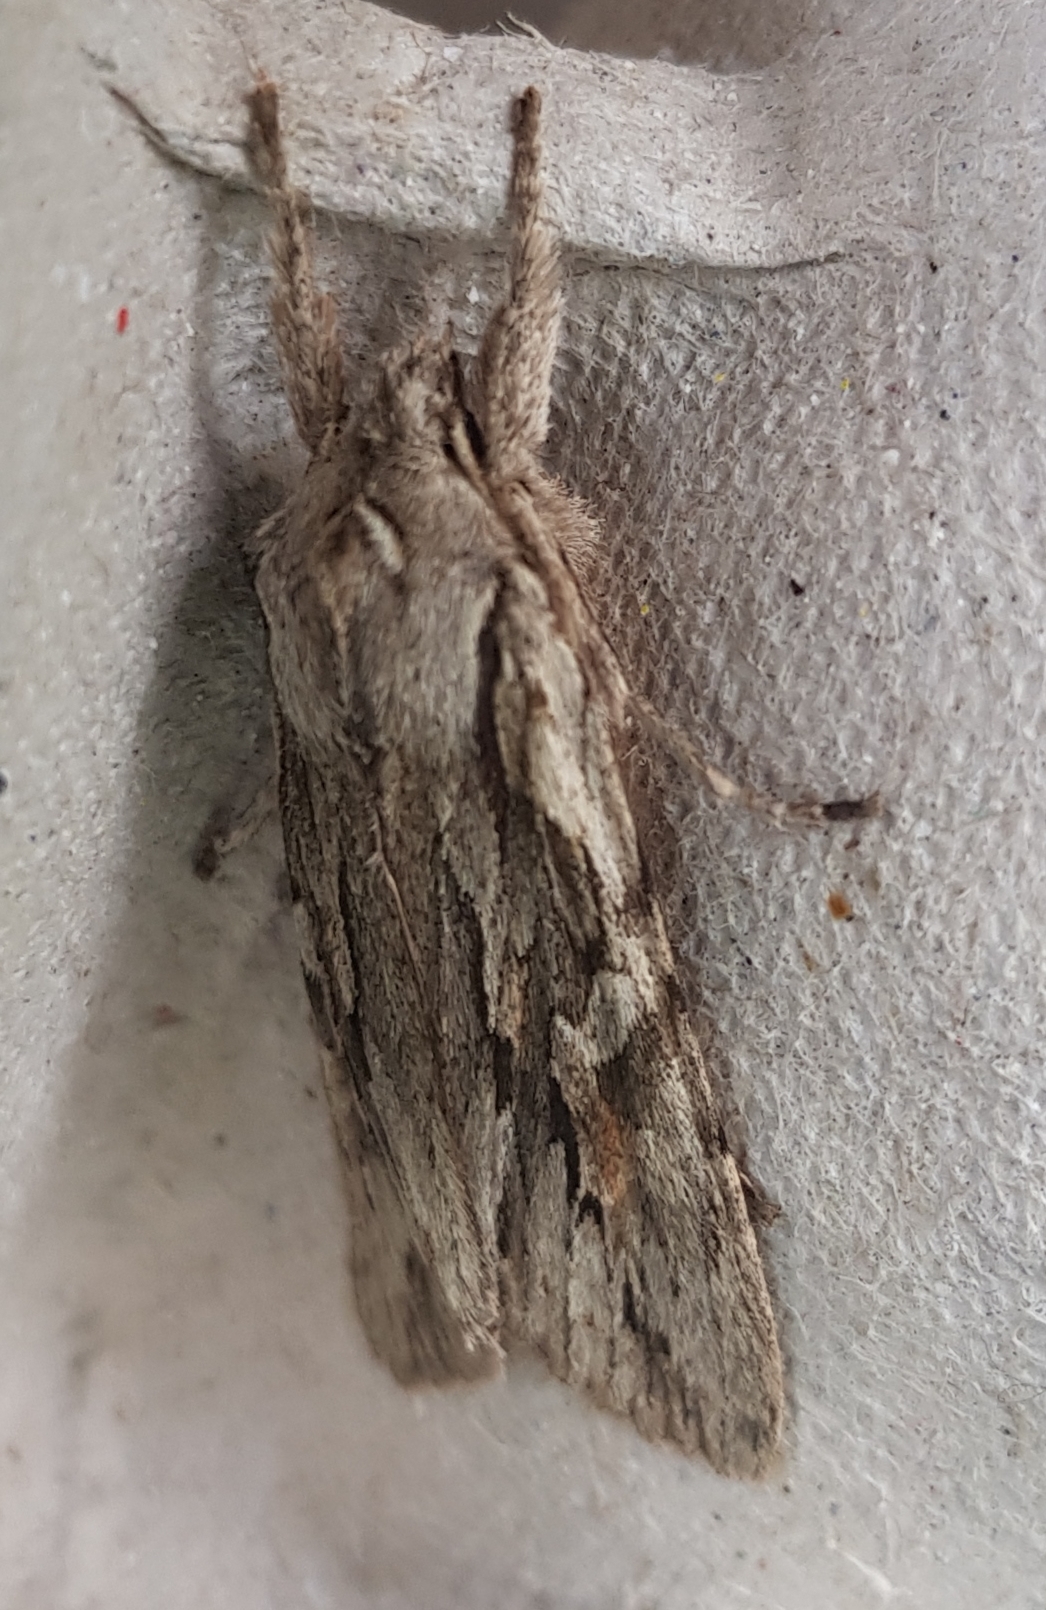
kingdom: Animalia
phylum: Arthropoda
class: Insecta
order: Lepidoptera
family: Noctuidae
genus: Lithophane
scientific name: Lithophane leautieri
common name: Blair's shoulder-knot
